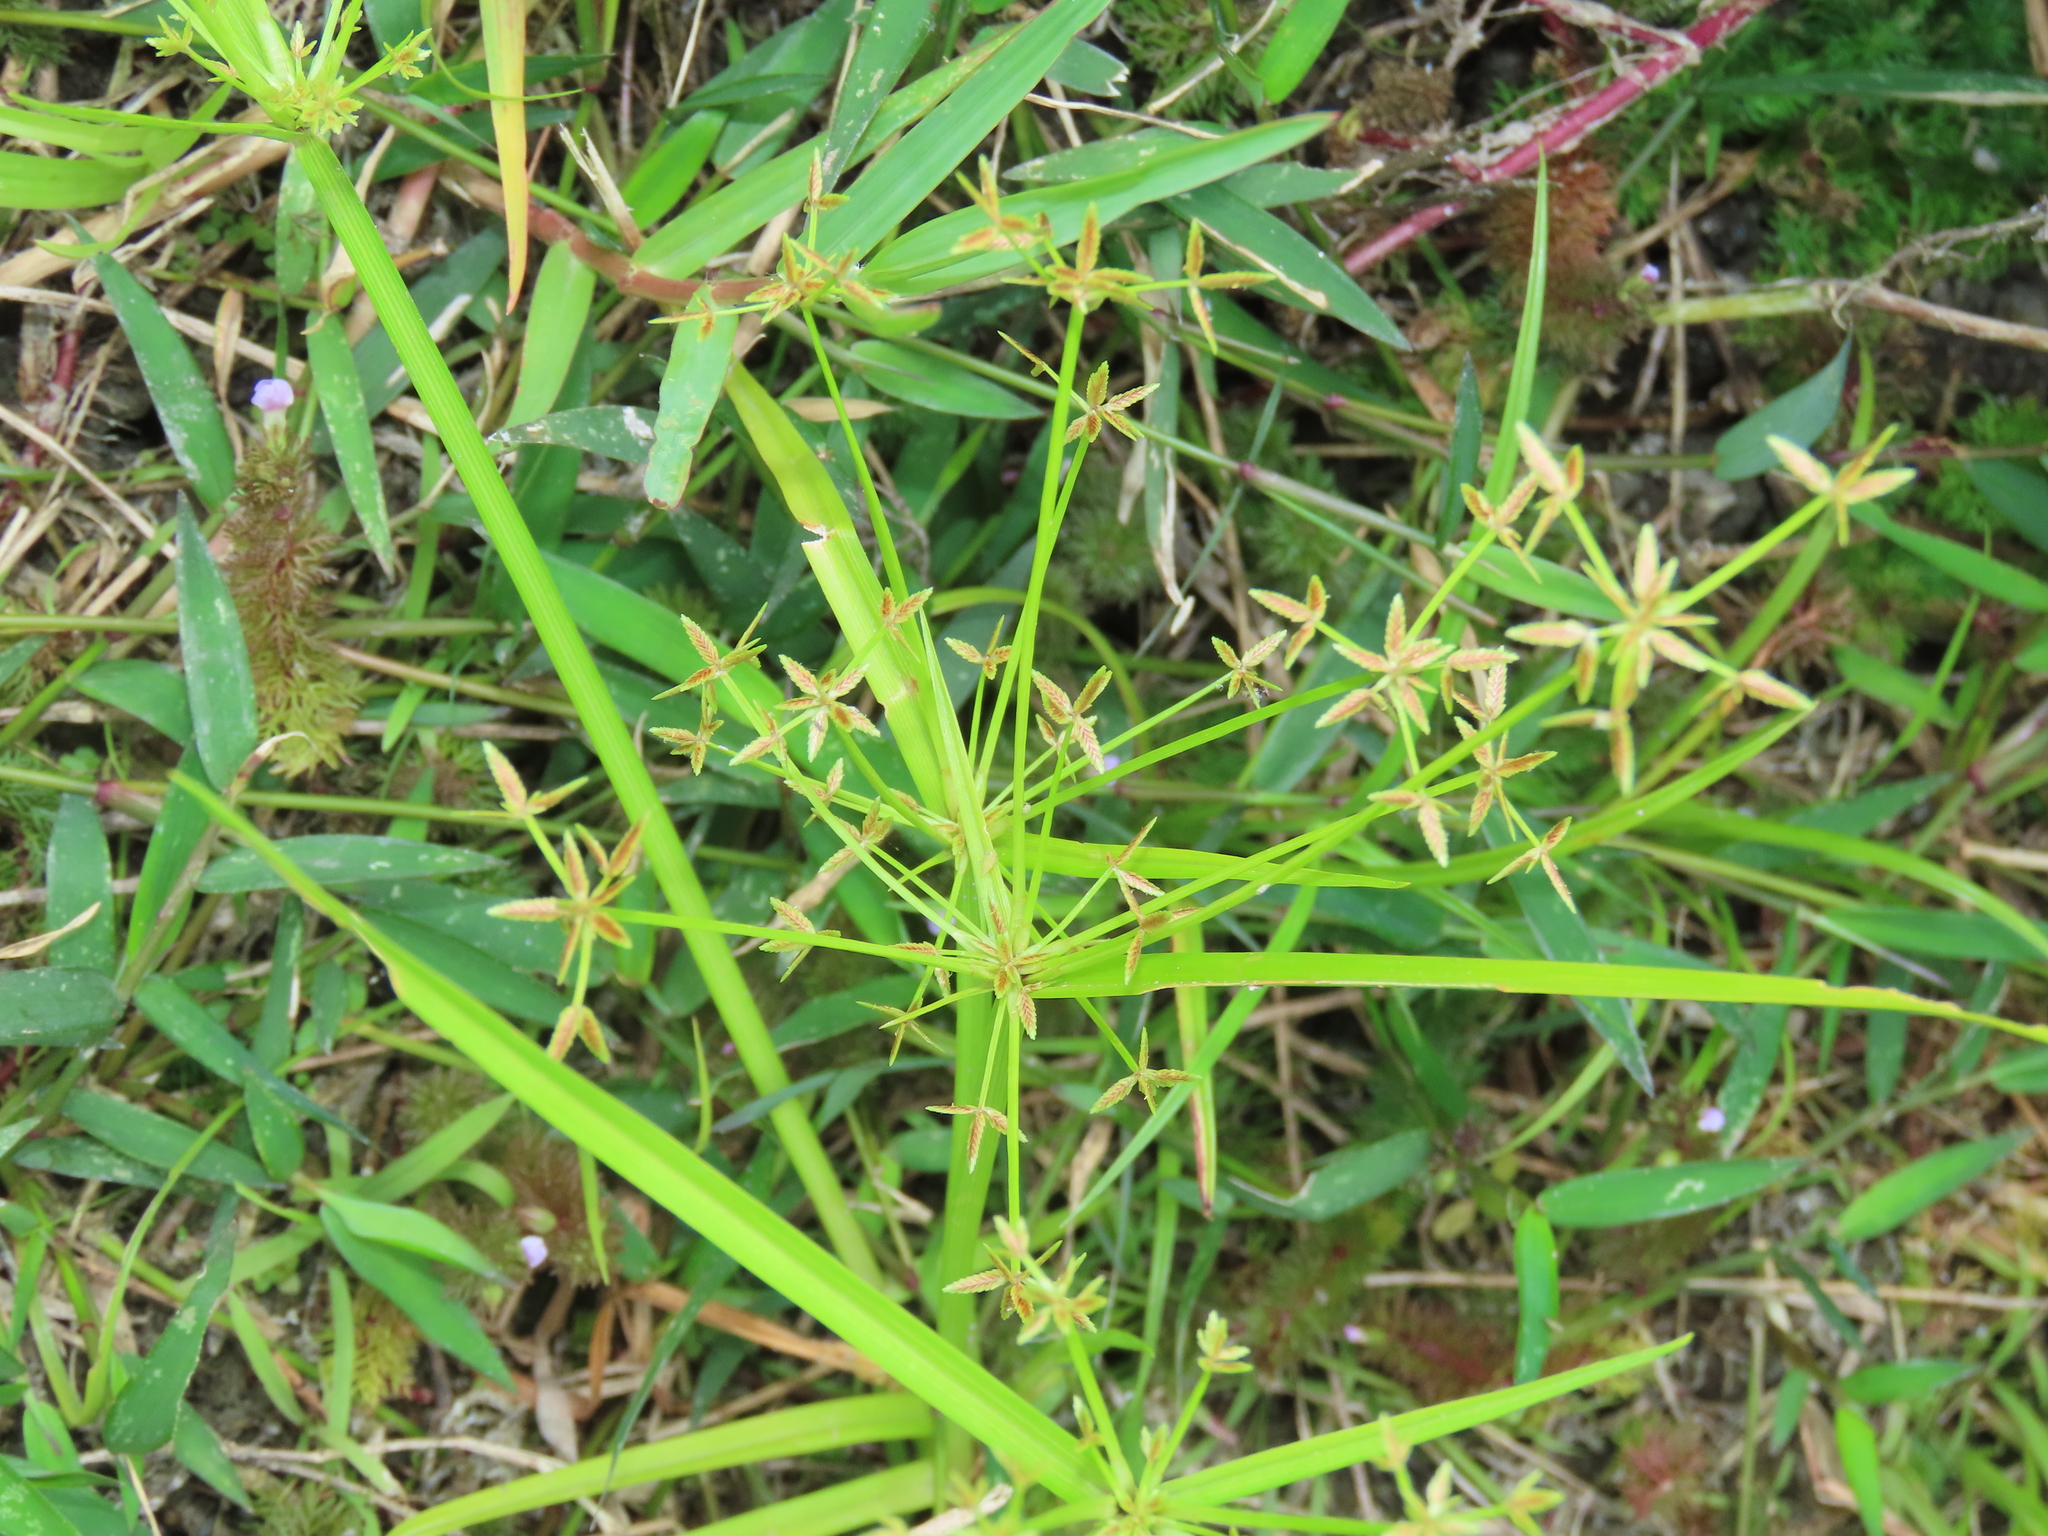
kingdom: Plantae
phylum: Tracheophyta
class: Liliopsida
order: Poales
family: Cyperaceae
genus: Cyperus
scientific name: Cyperus haspan
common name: Haspan flatsedge
